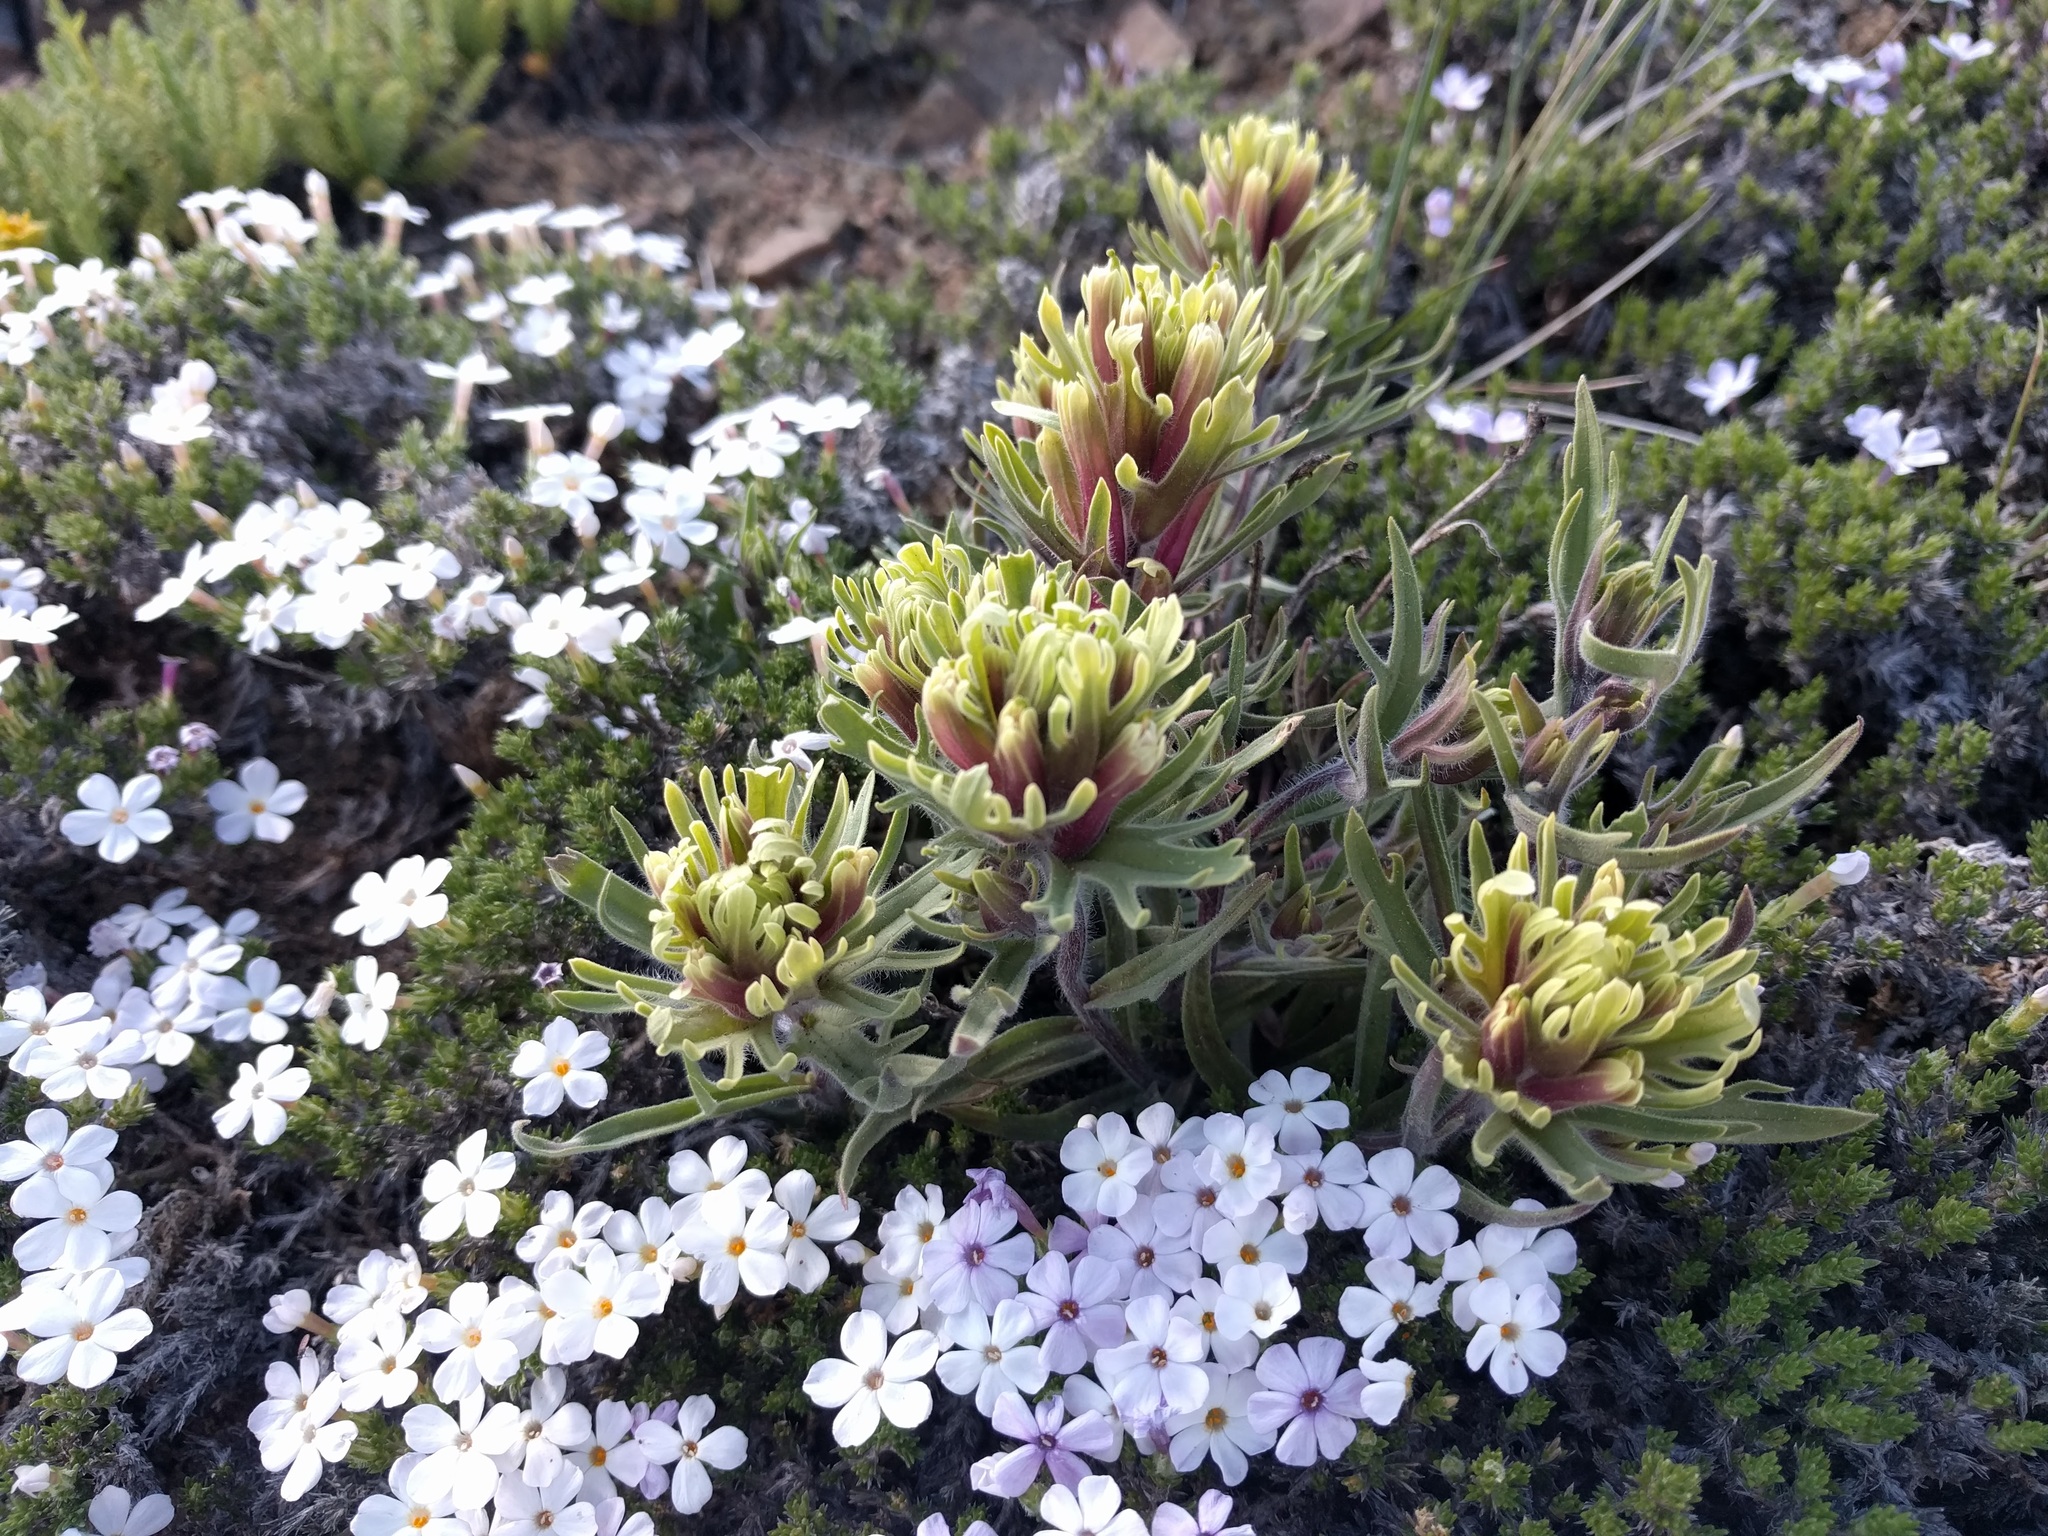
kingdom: Plantae
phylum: Tracheophyta
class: Magnoliopsida
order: Lamiales
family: Orobanchaceae
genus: Castilleja
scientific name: Castilleja thompsonii
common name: Thompson's paintbrush
